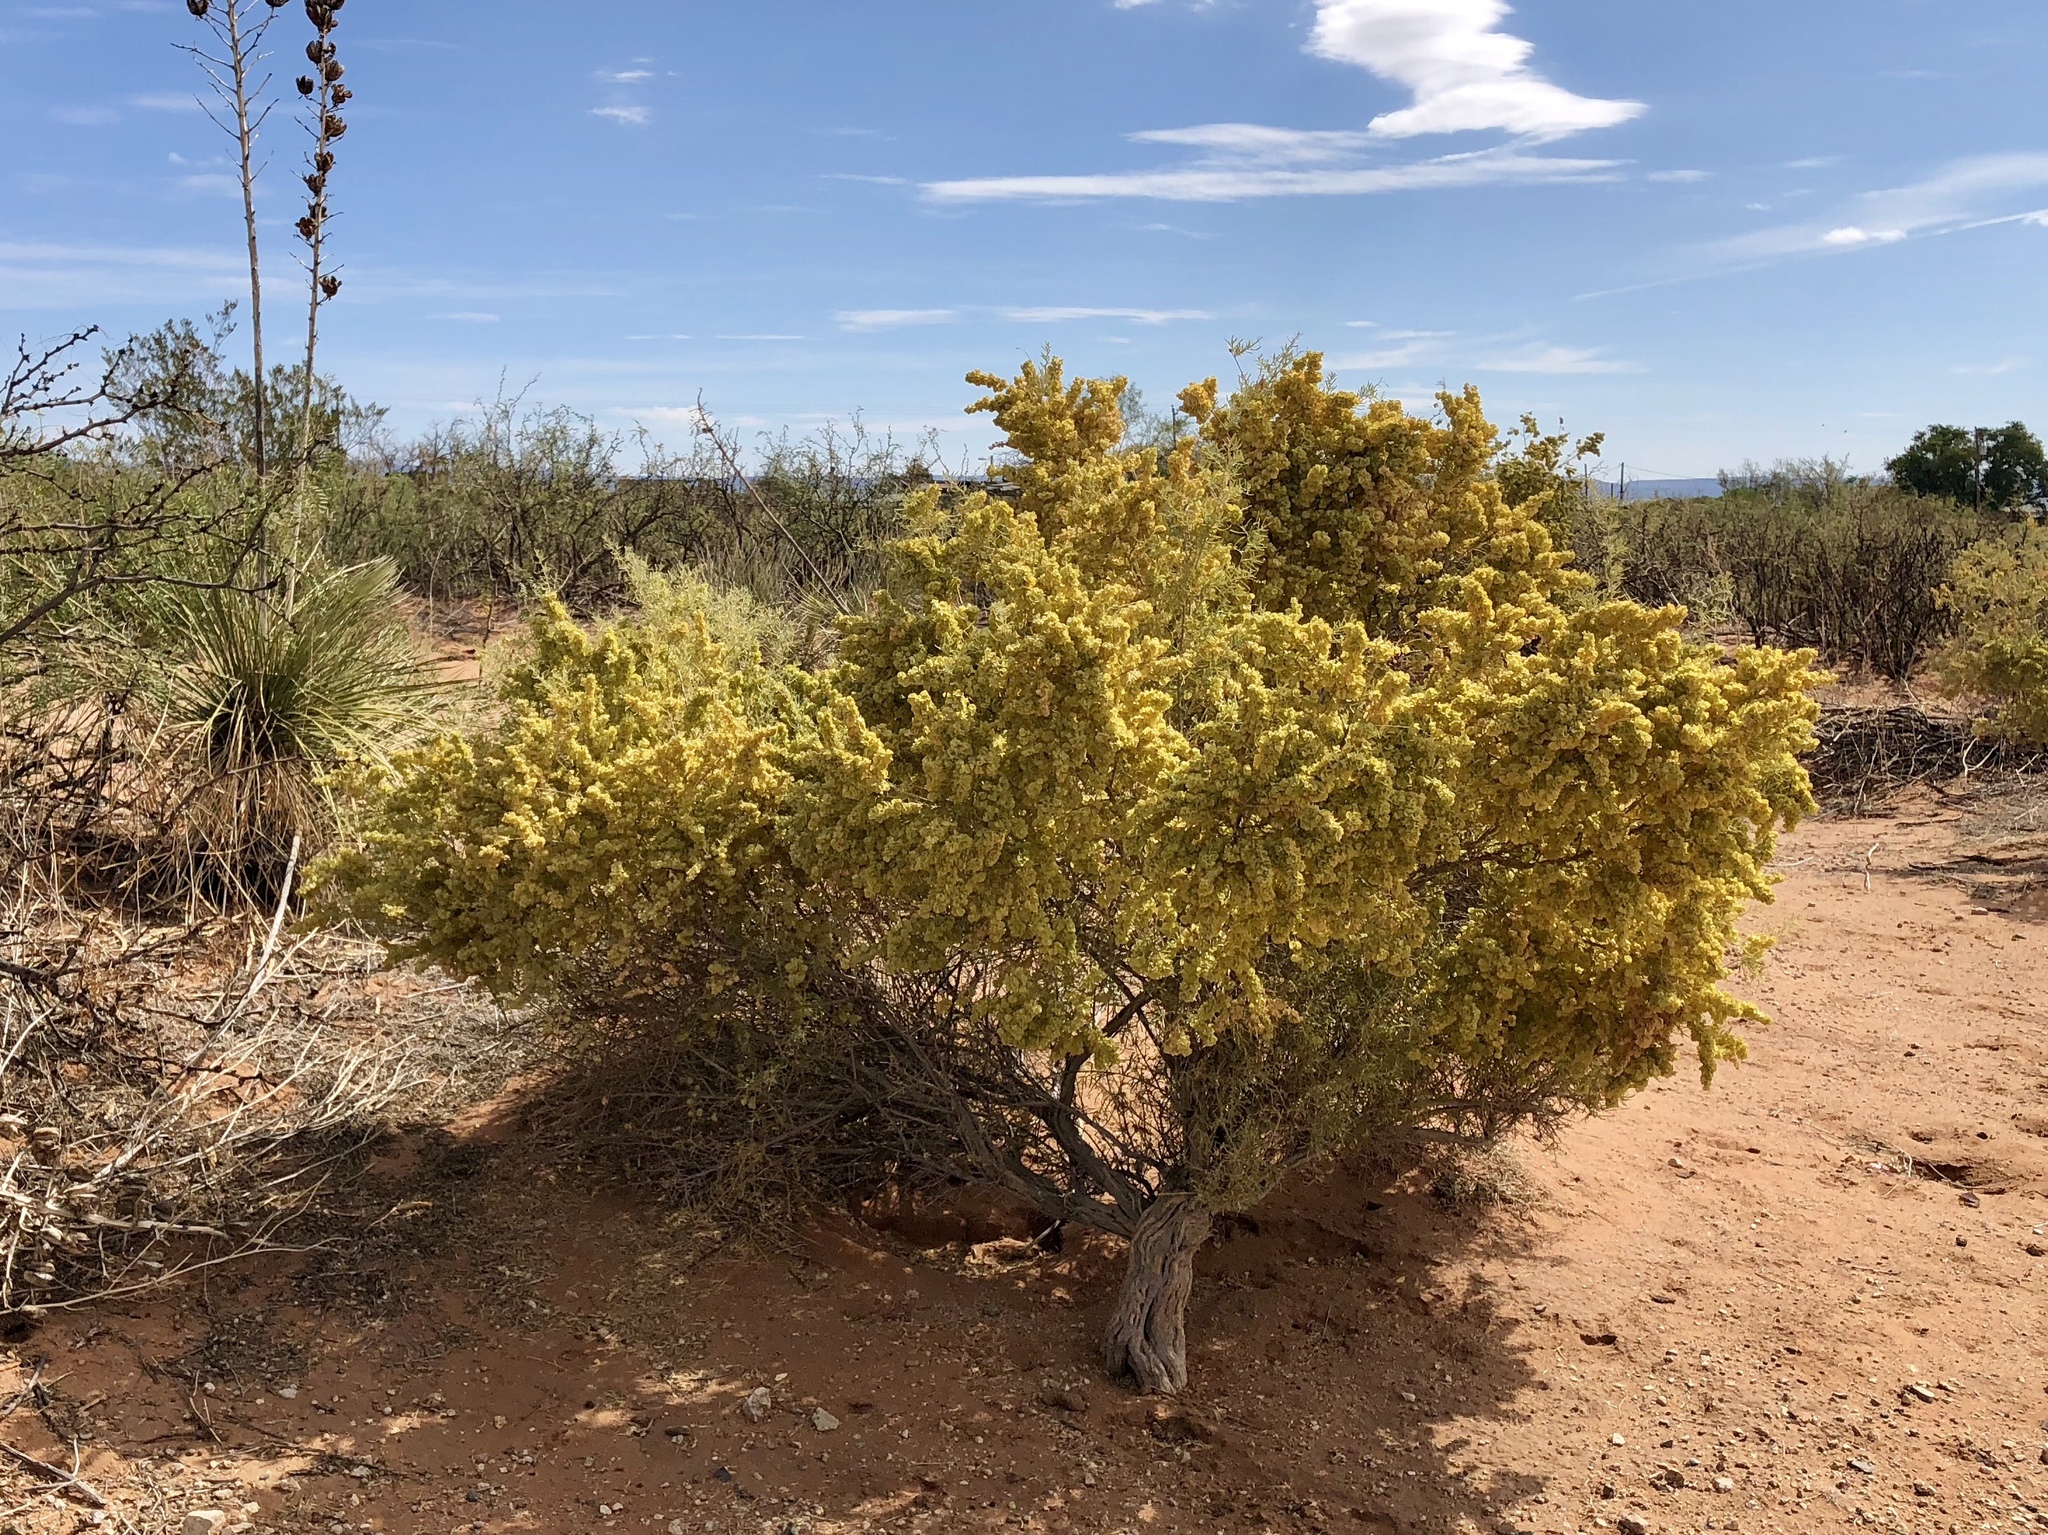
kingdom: Plantae
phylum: Tracheophyta
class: Magnoliopsida
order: Caryophyllales
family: Amaranthaceae
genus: Atriplex
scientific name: Atriplex canescens
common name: Four-wing saltbush
